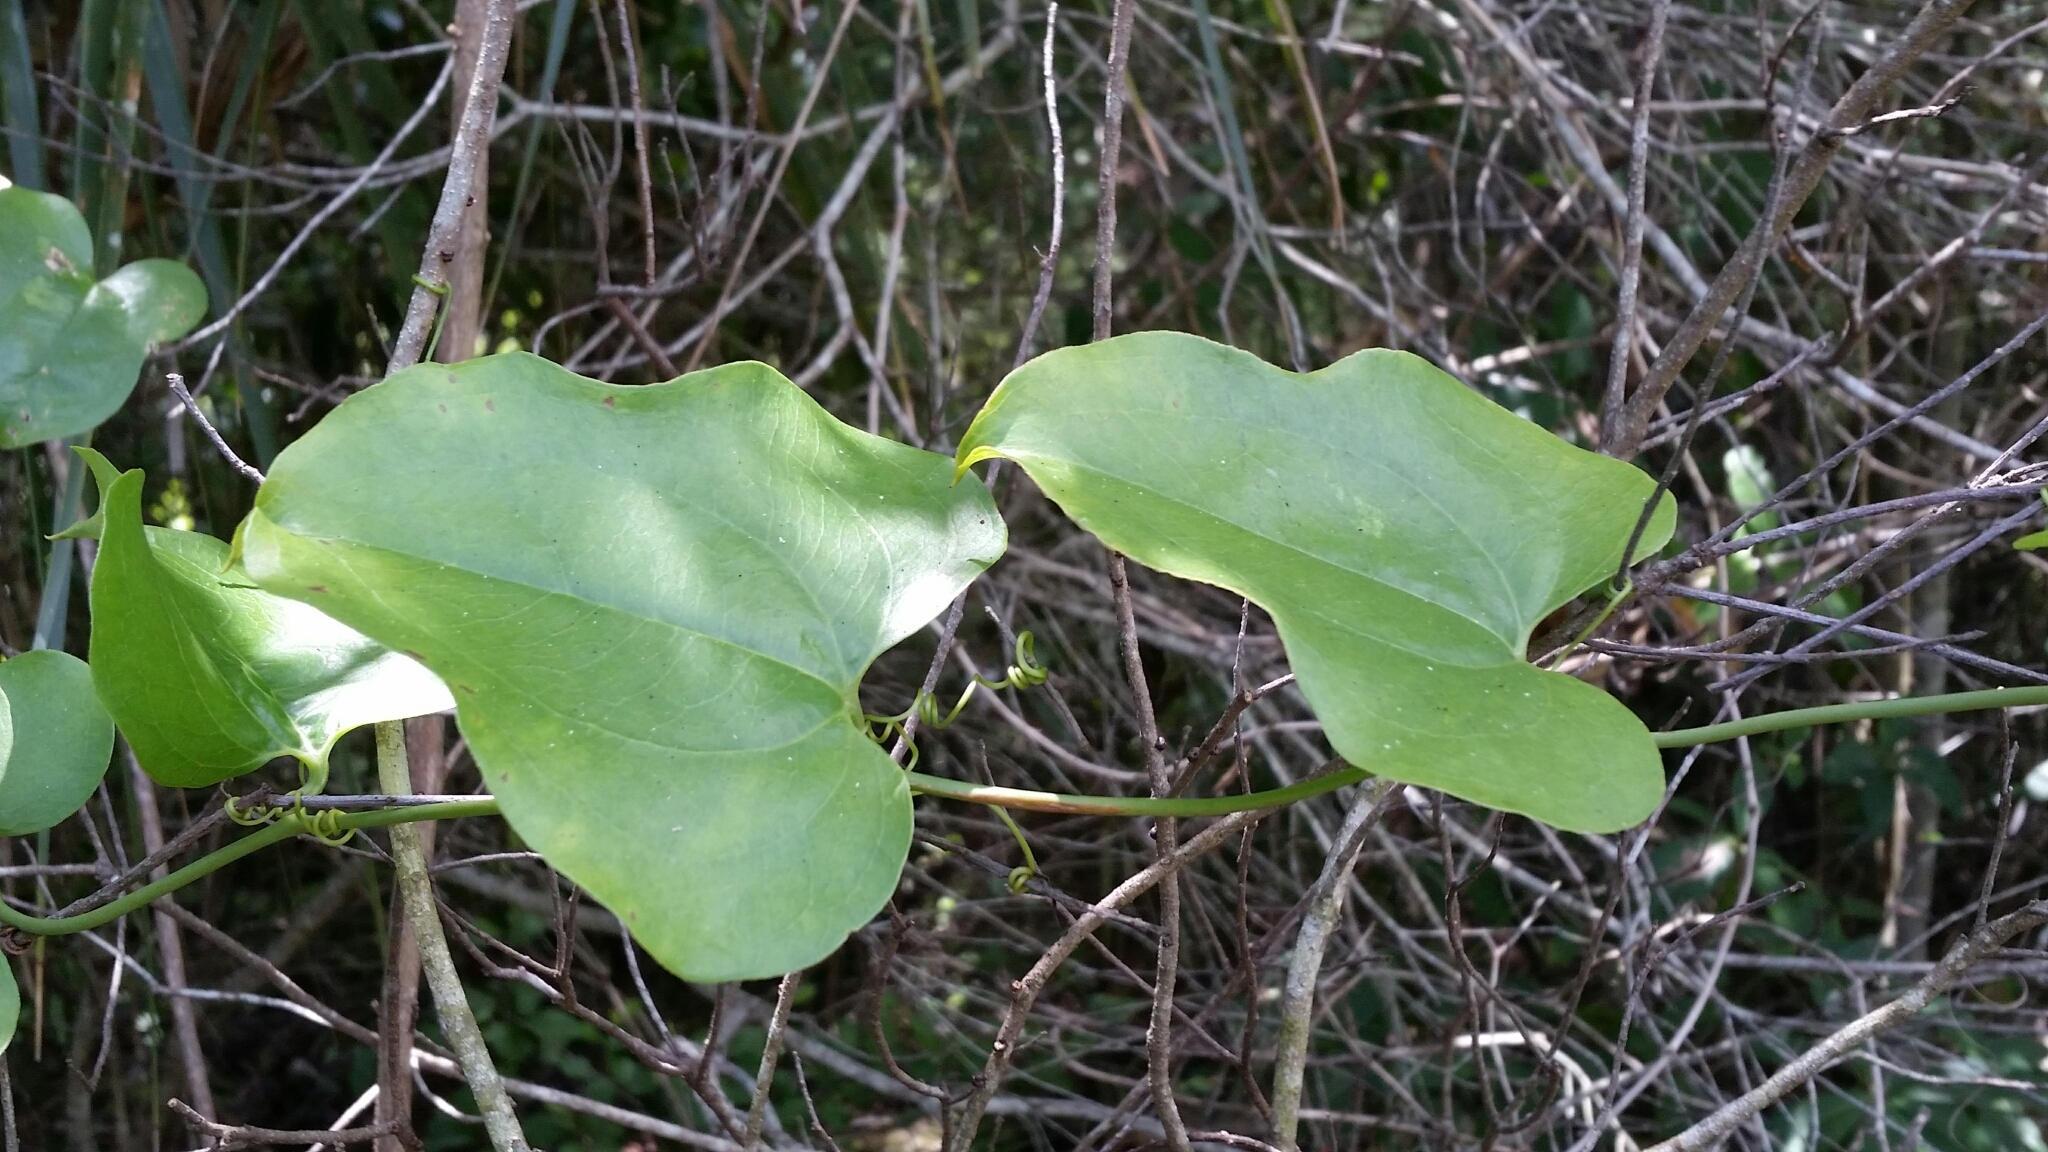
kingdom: Plantae
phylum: Tracheophyta
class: Liliopsida
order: Liliales
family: Smilacaceae
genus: Smilax
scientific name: Smilax tamnoides
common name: Hellfetter
